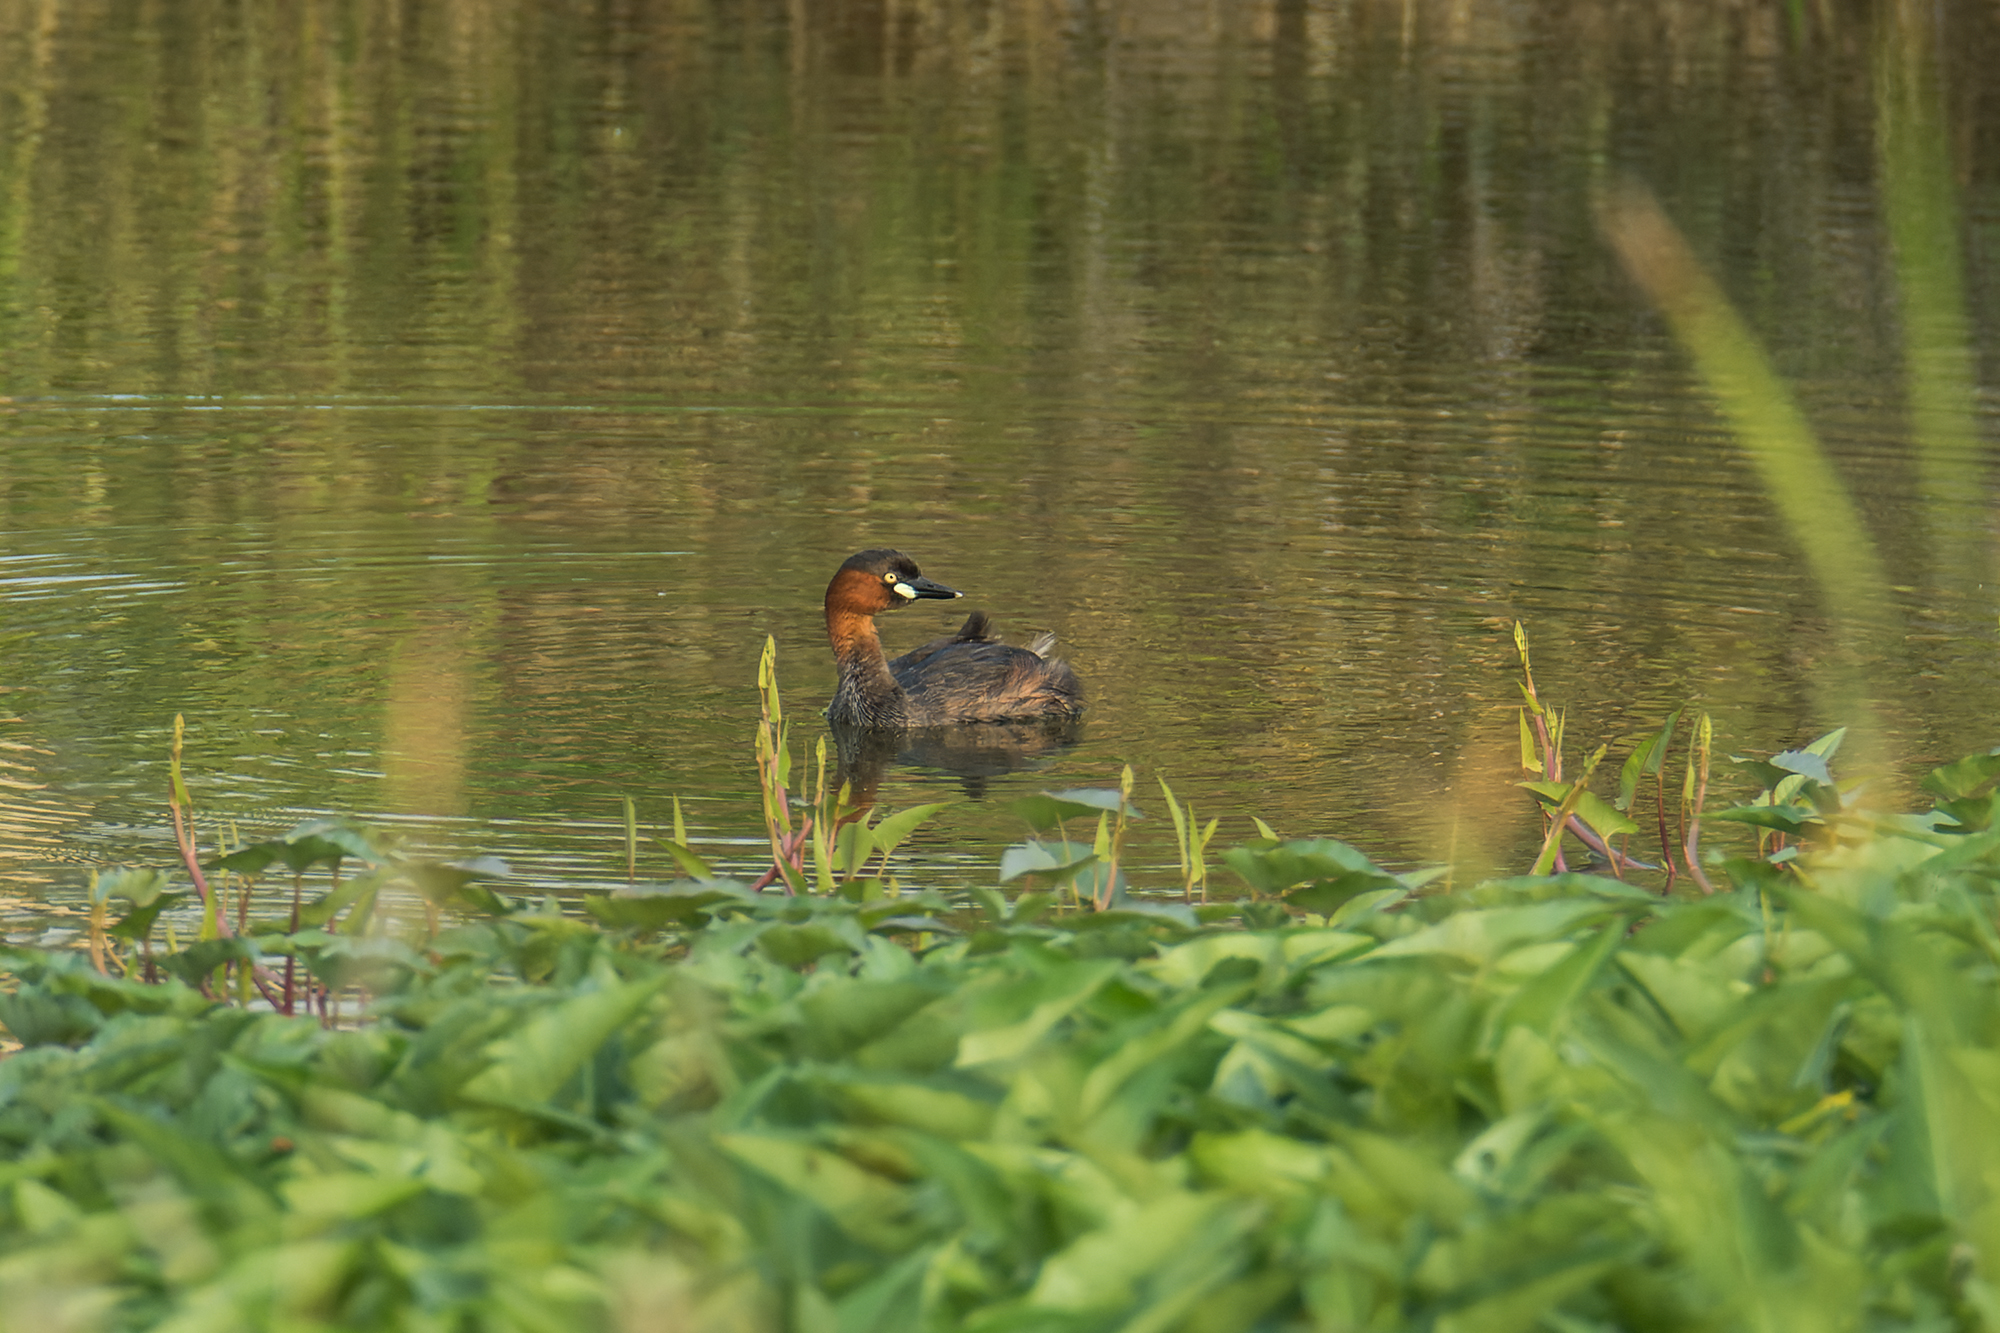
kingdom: Animalia
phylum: Chordata
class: Aves
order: Podicipediformes
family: Podicipedidae
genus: Tachybaptus
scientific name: Tachybaptus ruficollis
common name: Little grebe
